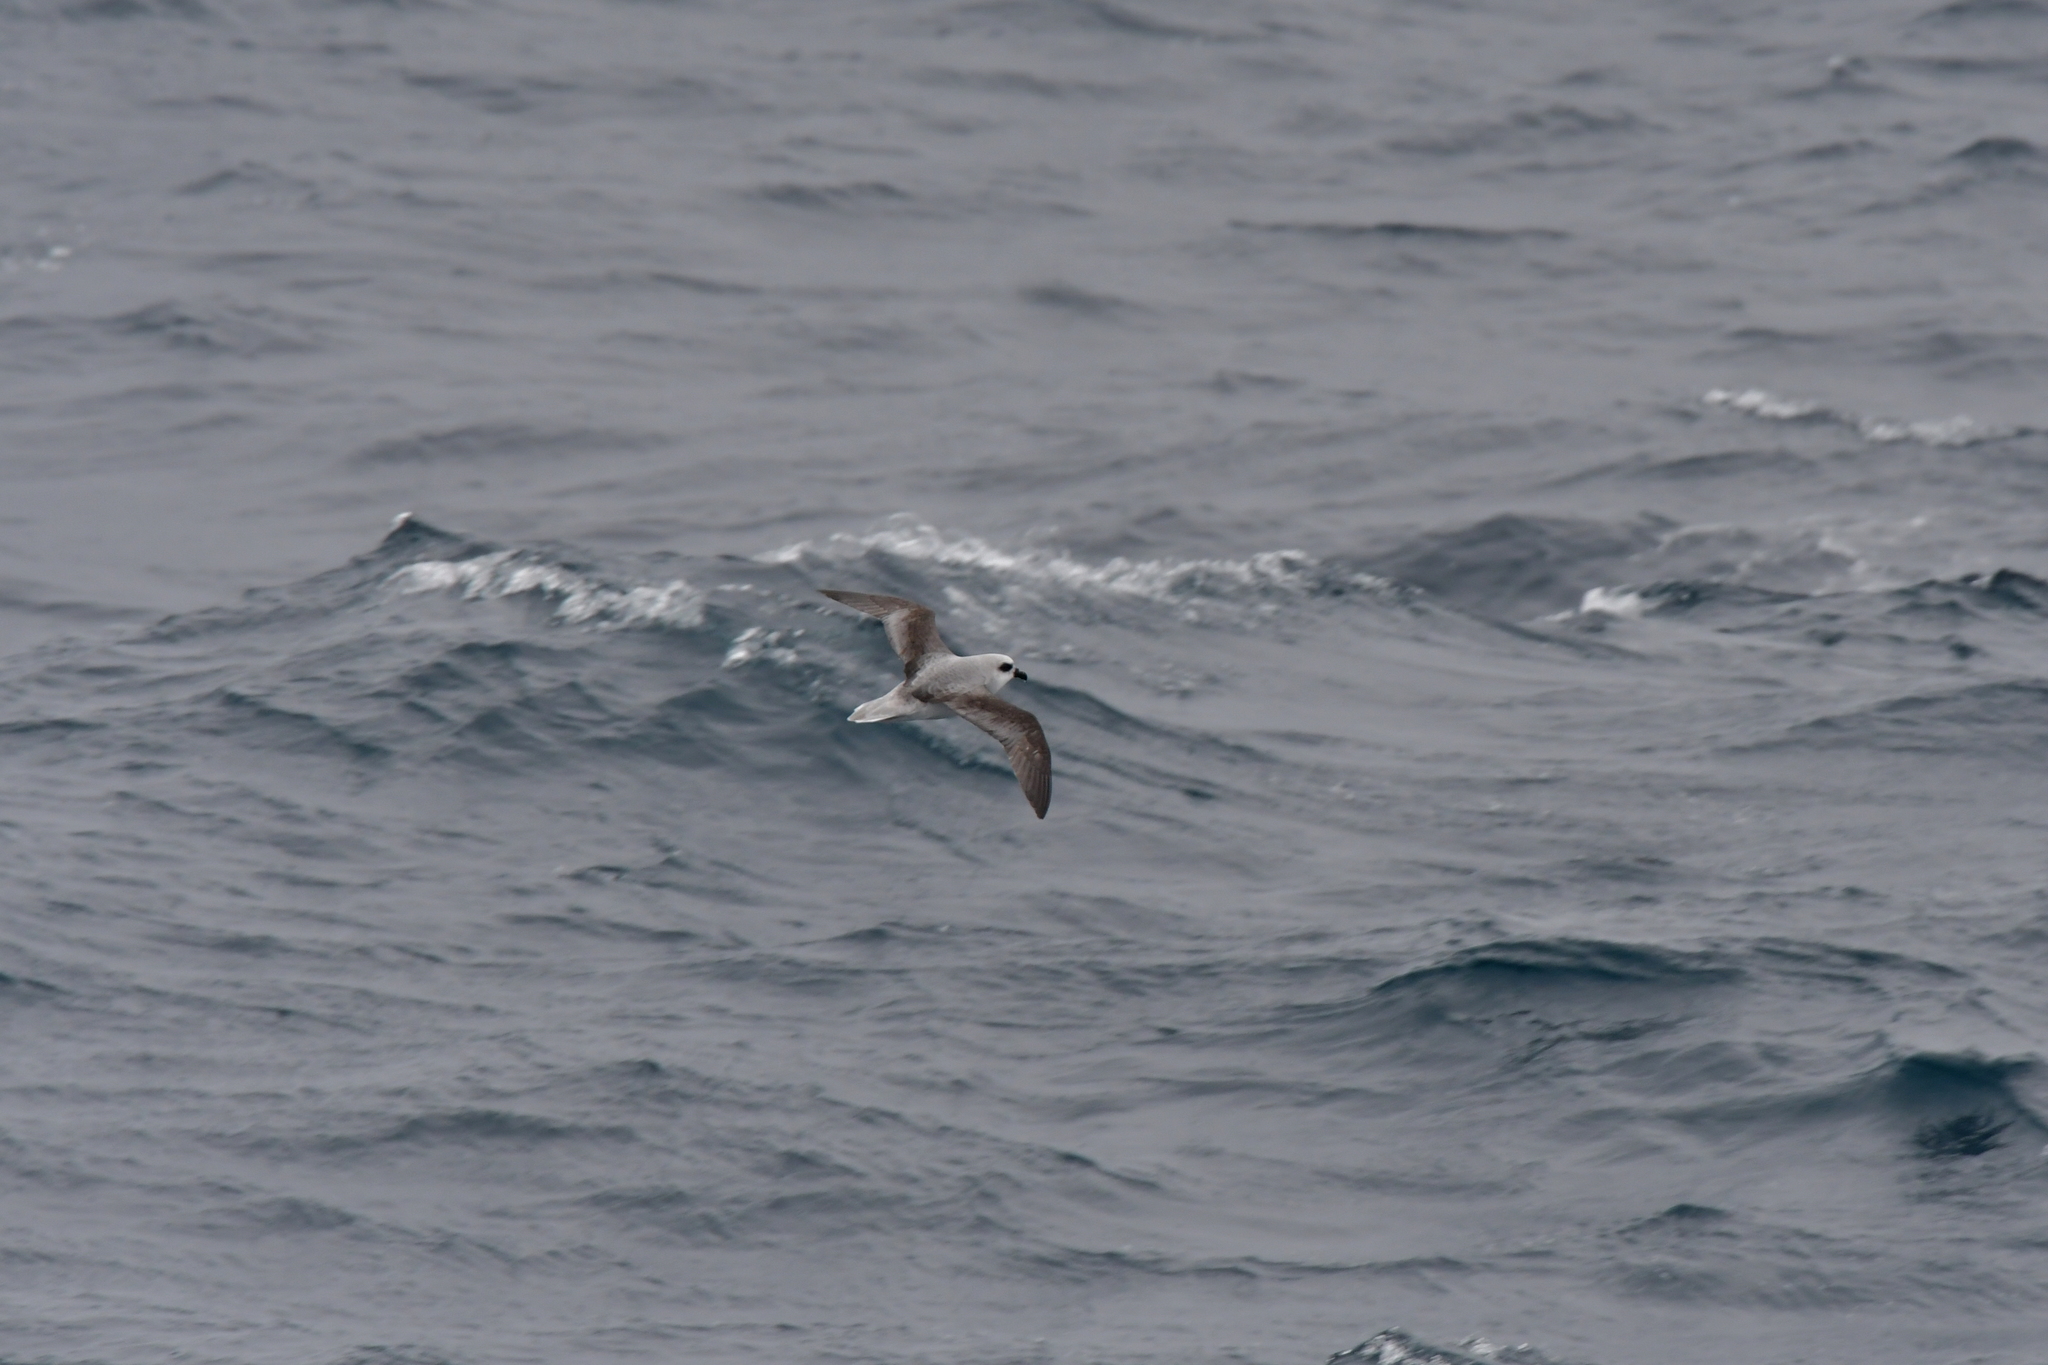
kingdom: Animalia
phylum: Chordata
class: Aves
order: Procellariiformes
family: Procellariidae
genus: Pterodroma
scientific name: Pterodroma lessonii
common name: White-headed petrel
